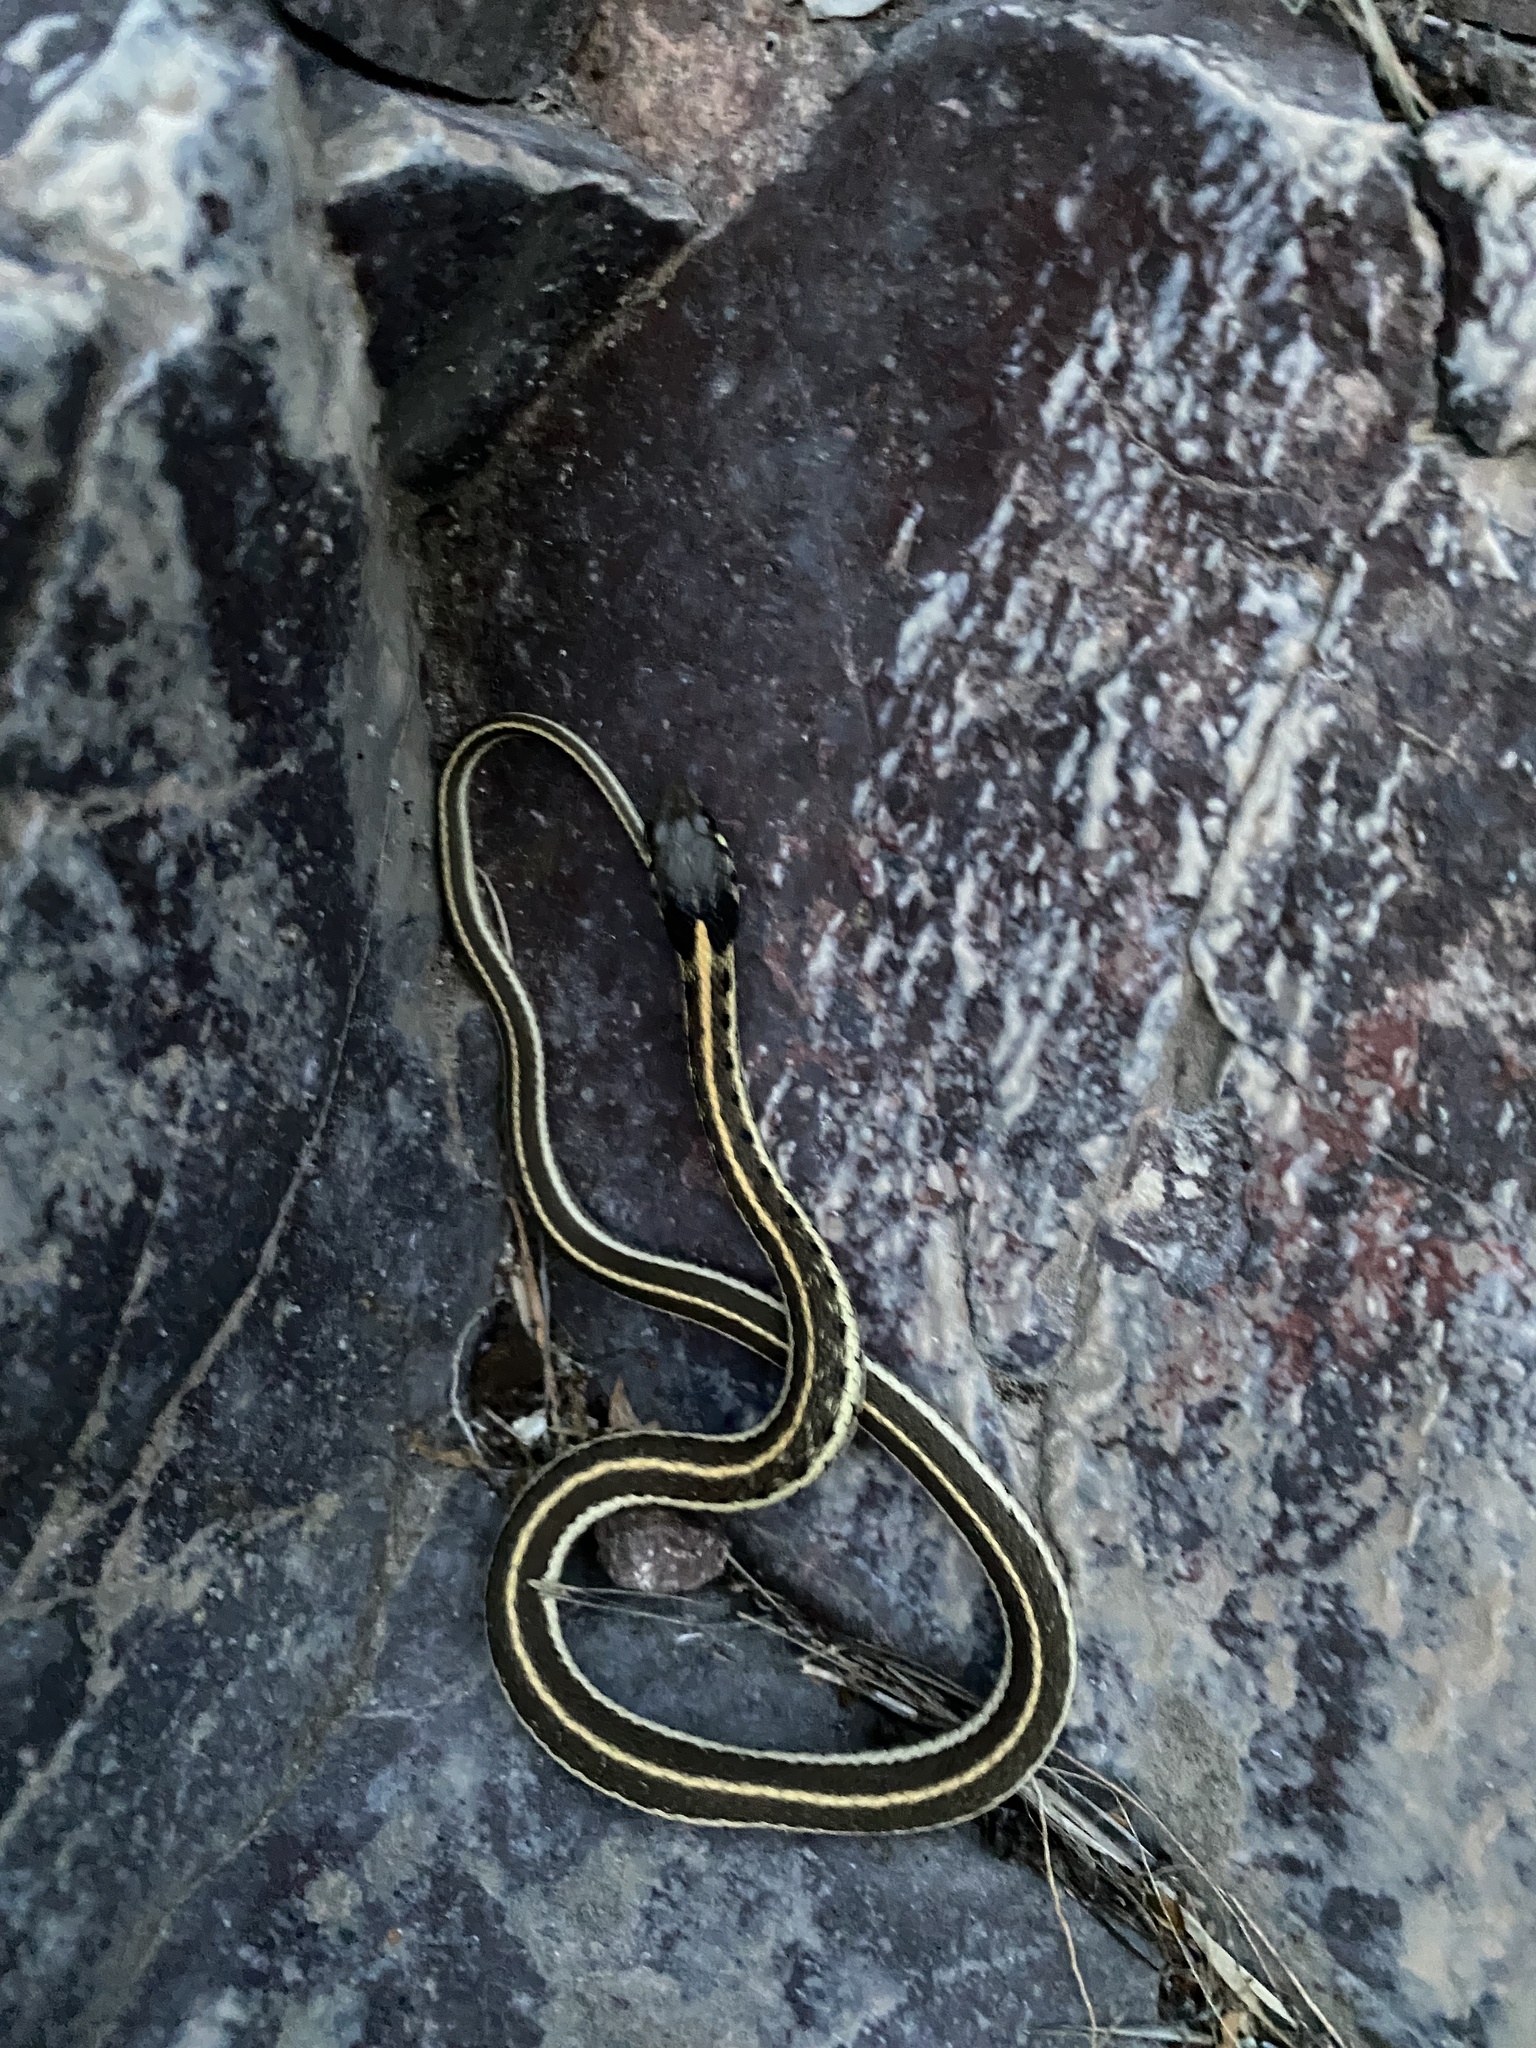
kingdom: Animalia
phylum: Chordata
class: Squamata
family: Colubridae
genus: Thamnophis
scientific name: Thamnophis cyrtopsis
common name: Black-necked gartersnake
